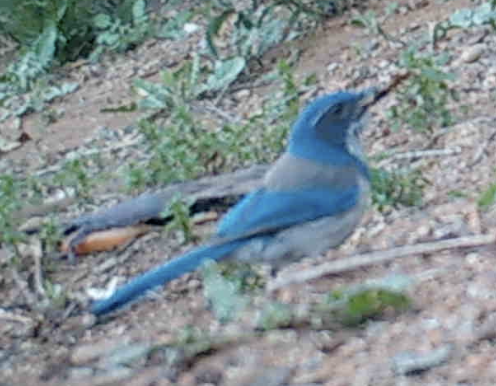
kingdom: Animalia
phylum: Chordata
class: Aves
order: Passeriformes
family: Corvidae
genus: Aphelocoma
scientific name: Aphelocoma californica
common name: California scrub-jay
